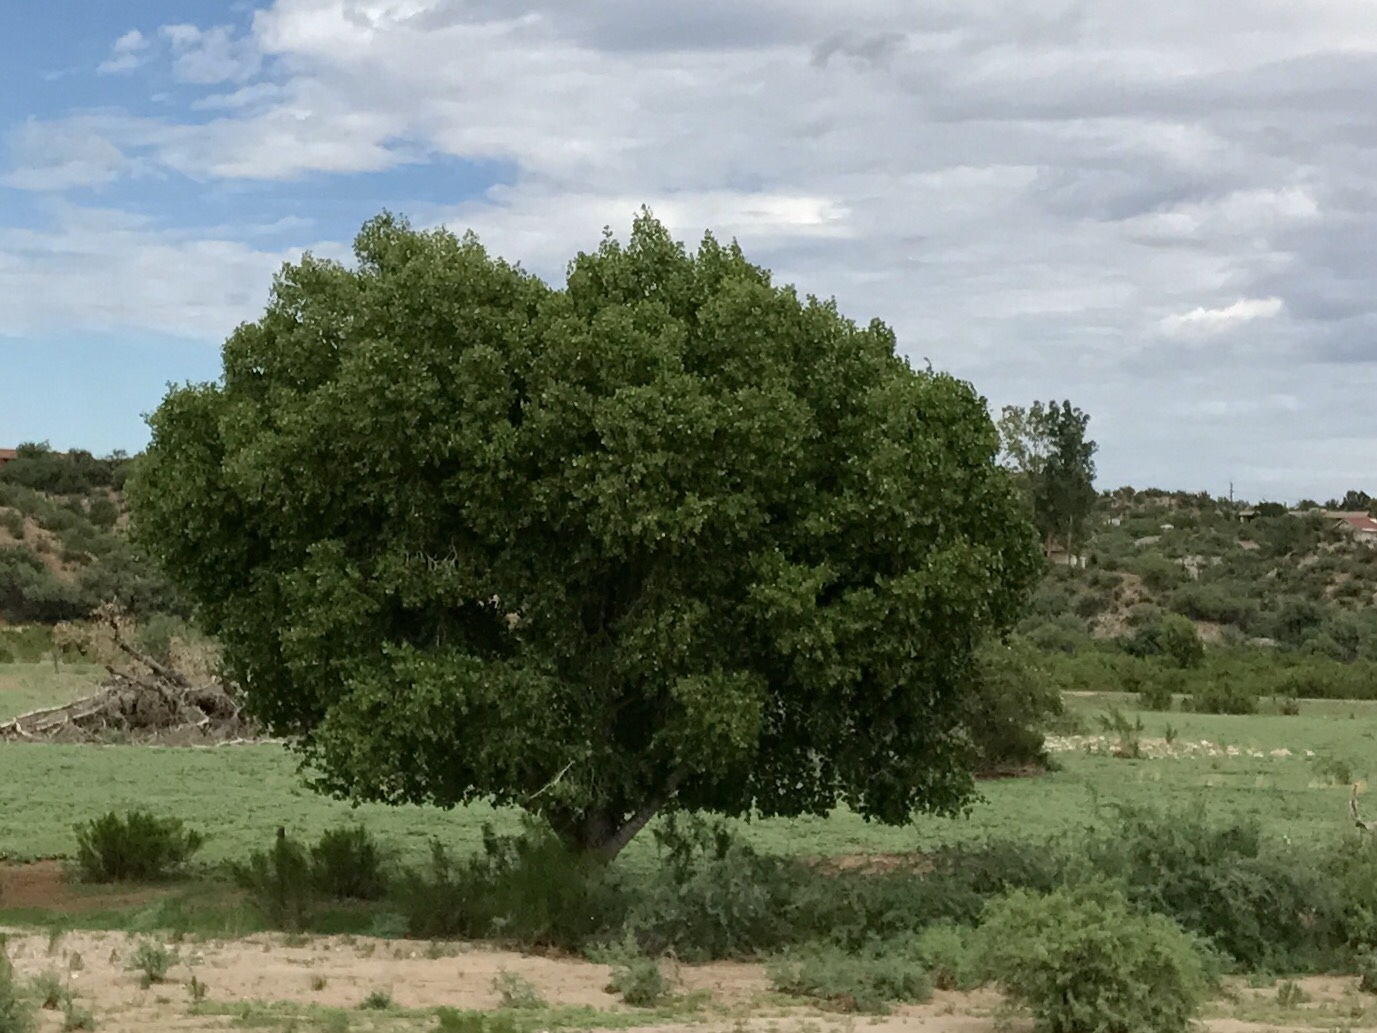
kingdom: Plantae
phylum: Tracheophyta
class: Magnoliopsida
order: Malpighiales
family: Salicaceae
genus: Populus
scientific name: Populus fremontii
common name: Fremont's cottonwood
